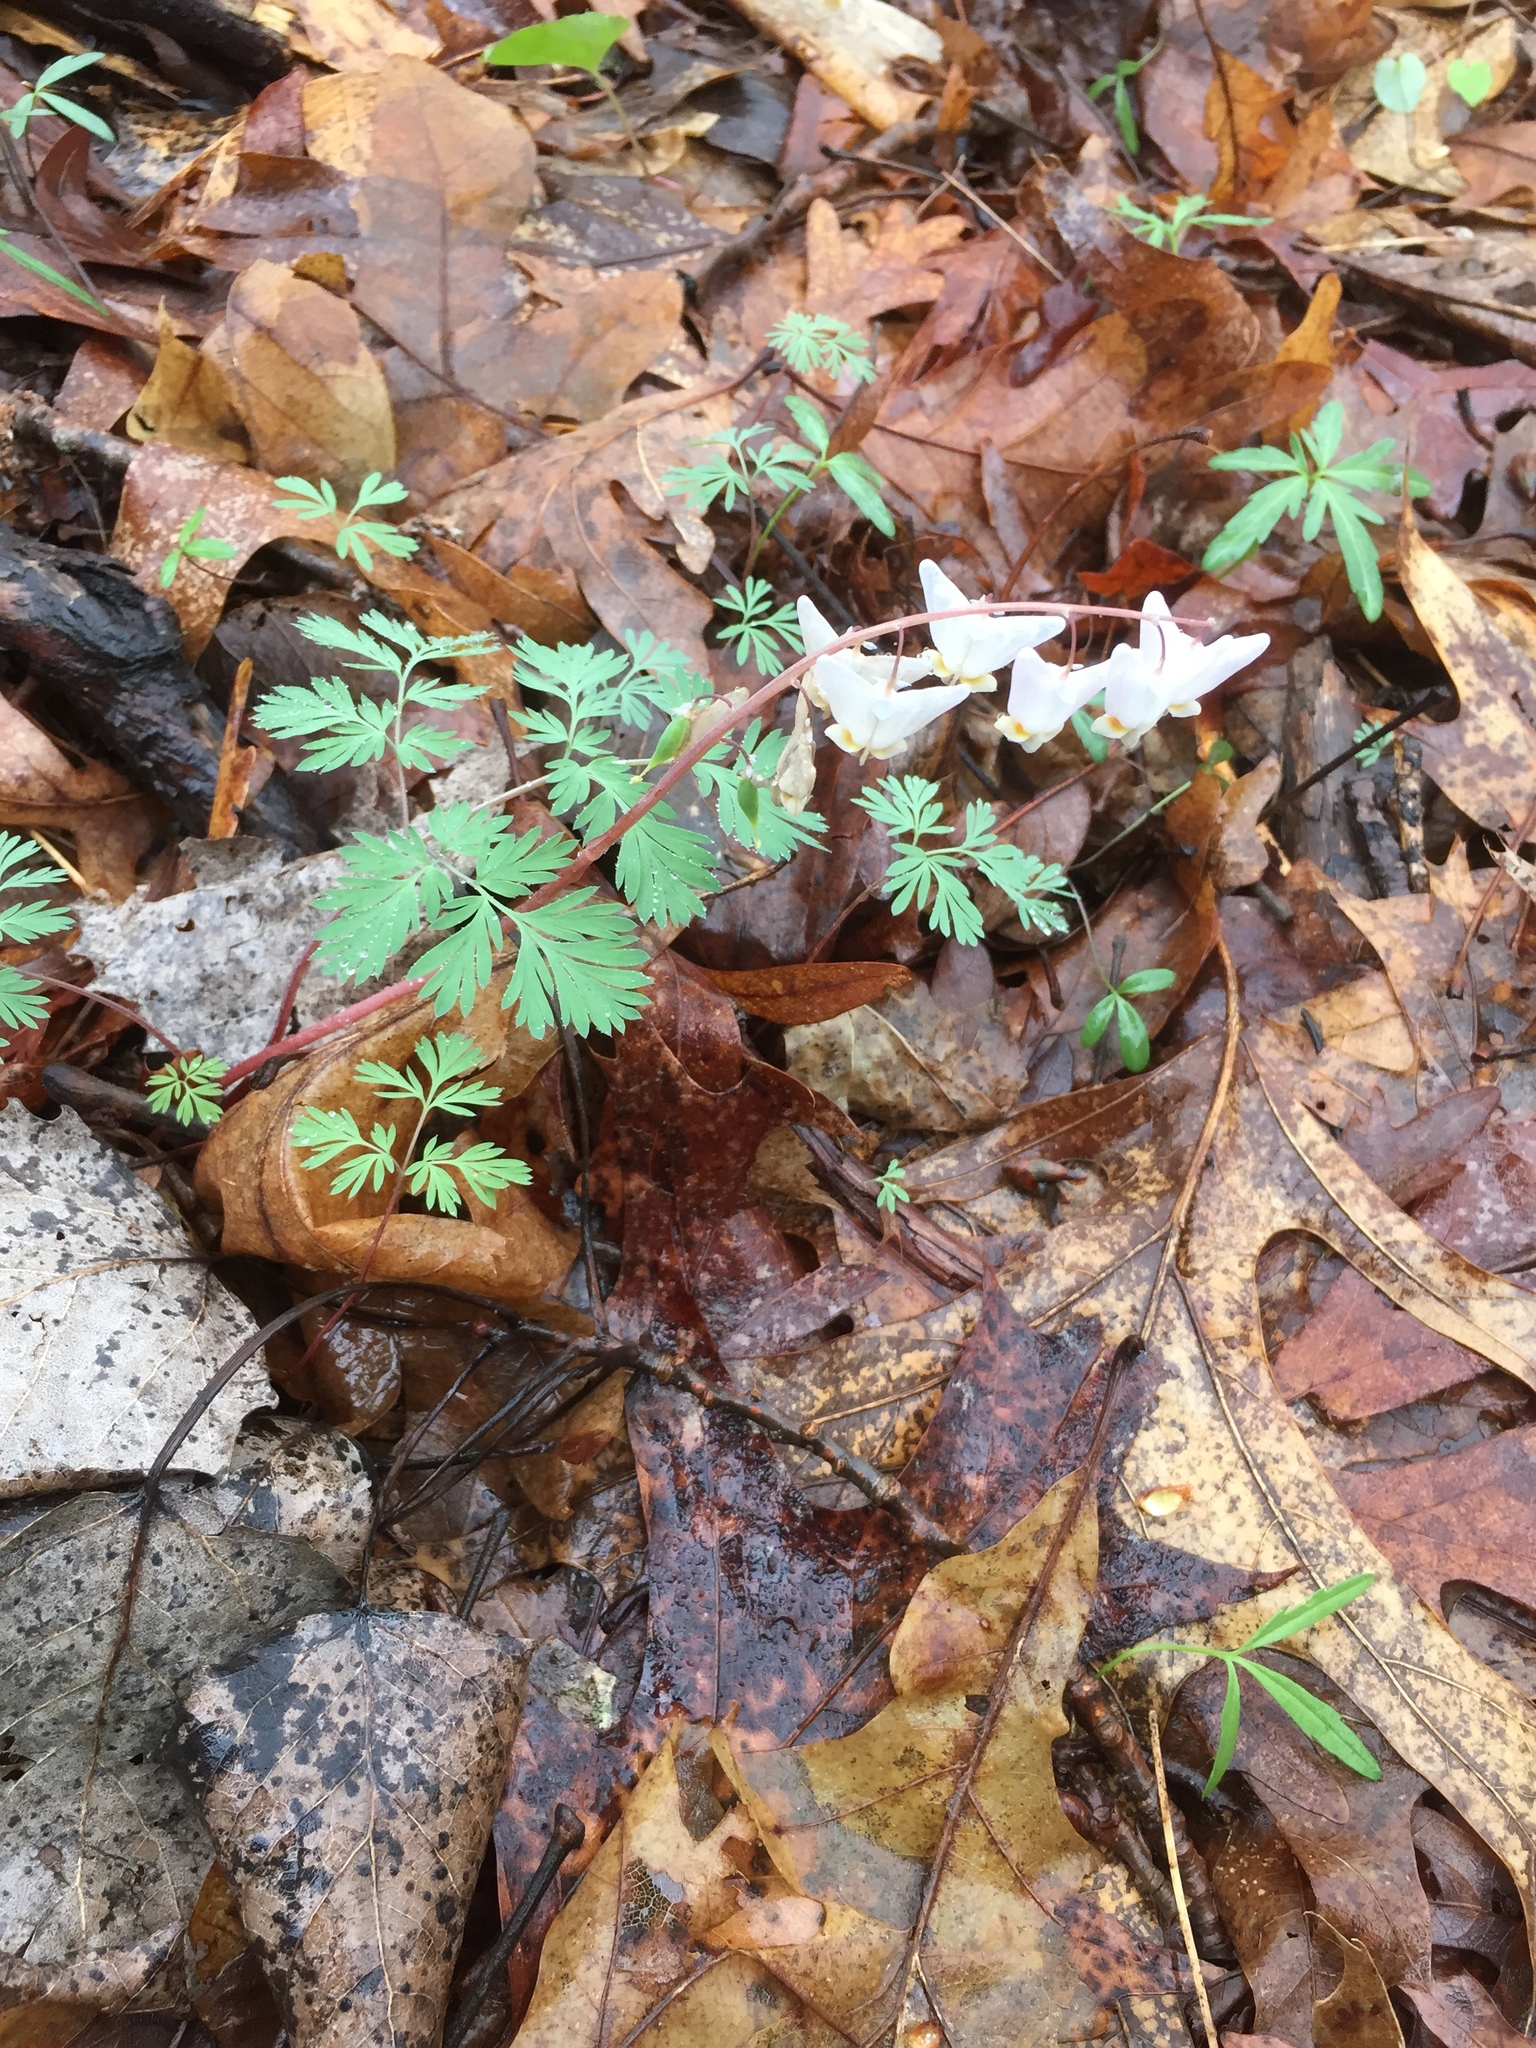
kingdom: Plantae
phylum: Tracheophyta
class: Magnoliopsida
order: Ranunculales
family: Papaveraceae
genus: Dicentra
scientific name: Dicentra cucullaria
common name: Dutchman's breeches
